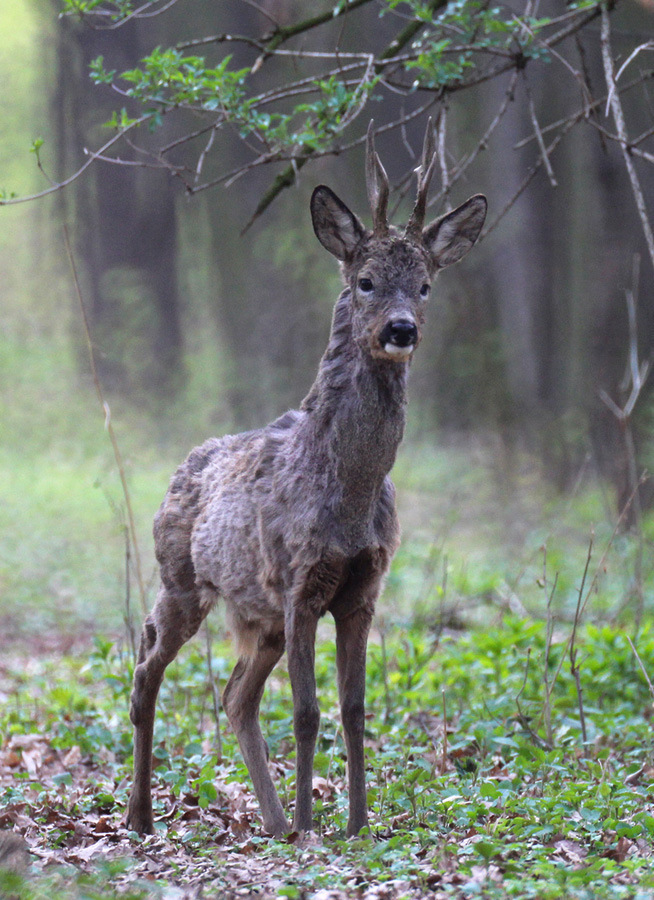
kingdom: Animalia
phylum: Chordata
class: Mammalia
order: Artiodactyla
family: Cervidae
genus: Capreolus
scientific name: Capreolus capreolus
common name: Western roe deer
